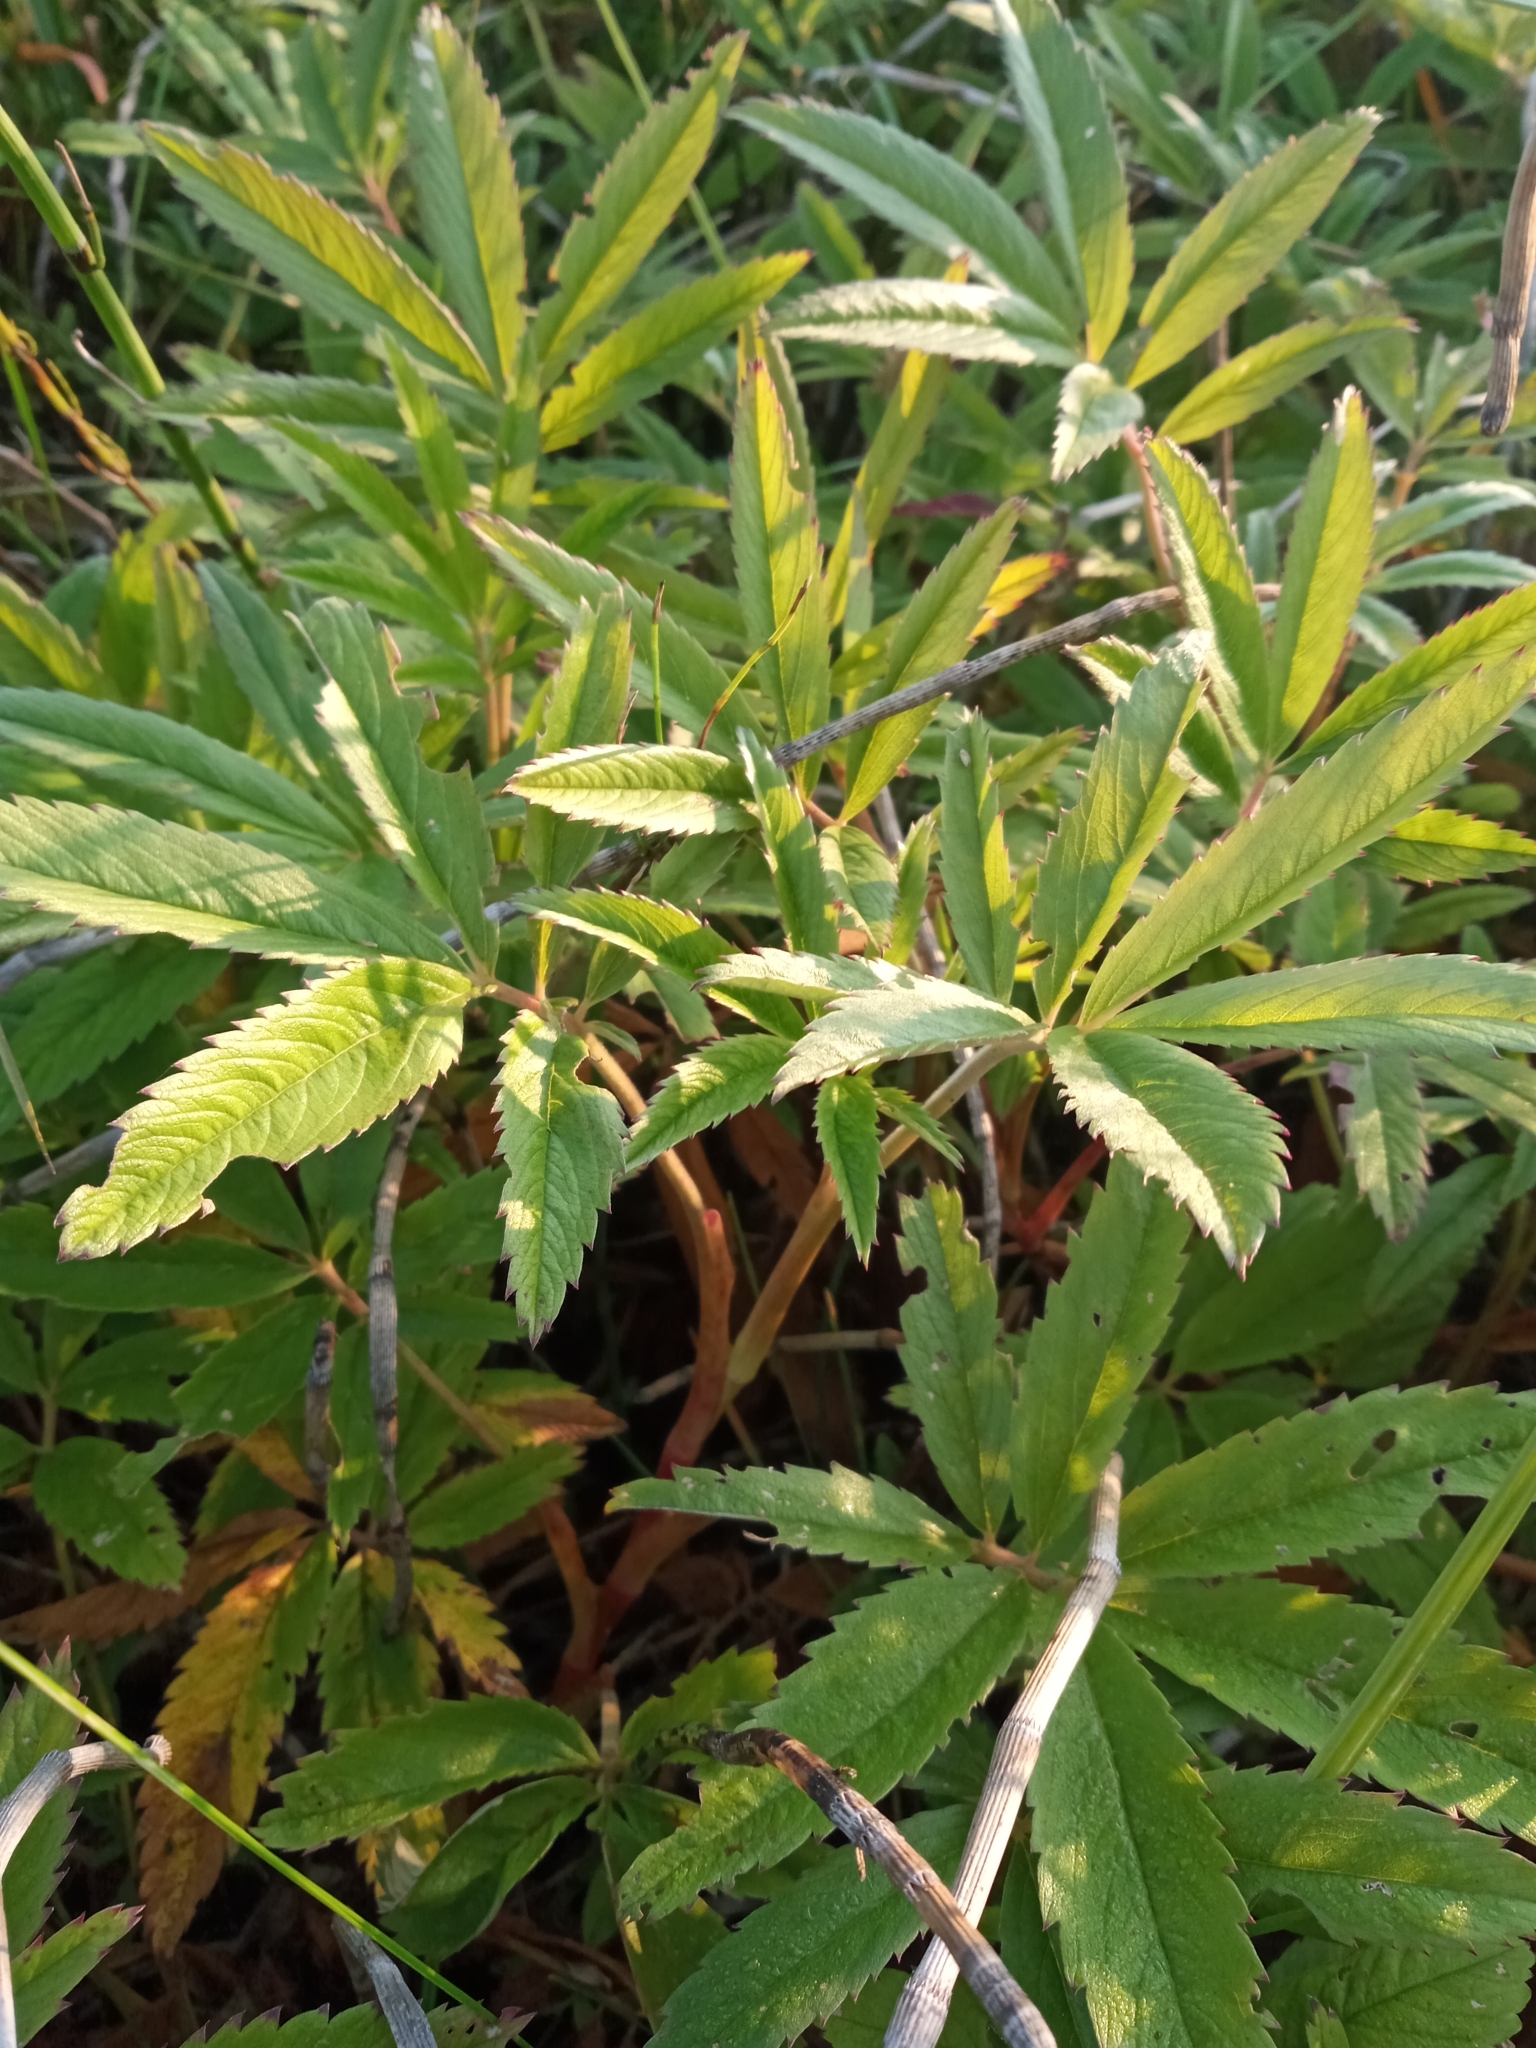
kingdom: Plantae
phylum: Tracheophyta
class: Magnoliopsida
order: Rosales
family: Rosaceae
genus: Comarum
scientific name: Comarum palustre
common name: Marsh cinquefoil
